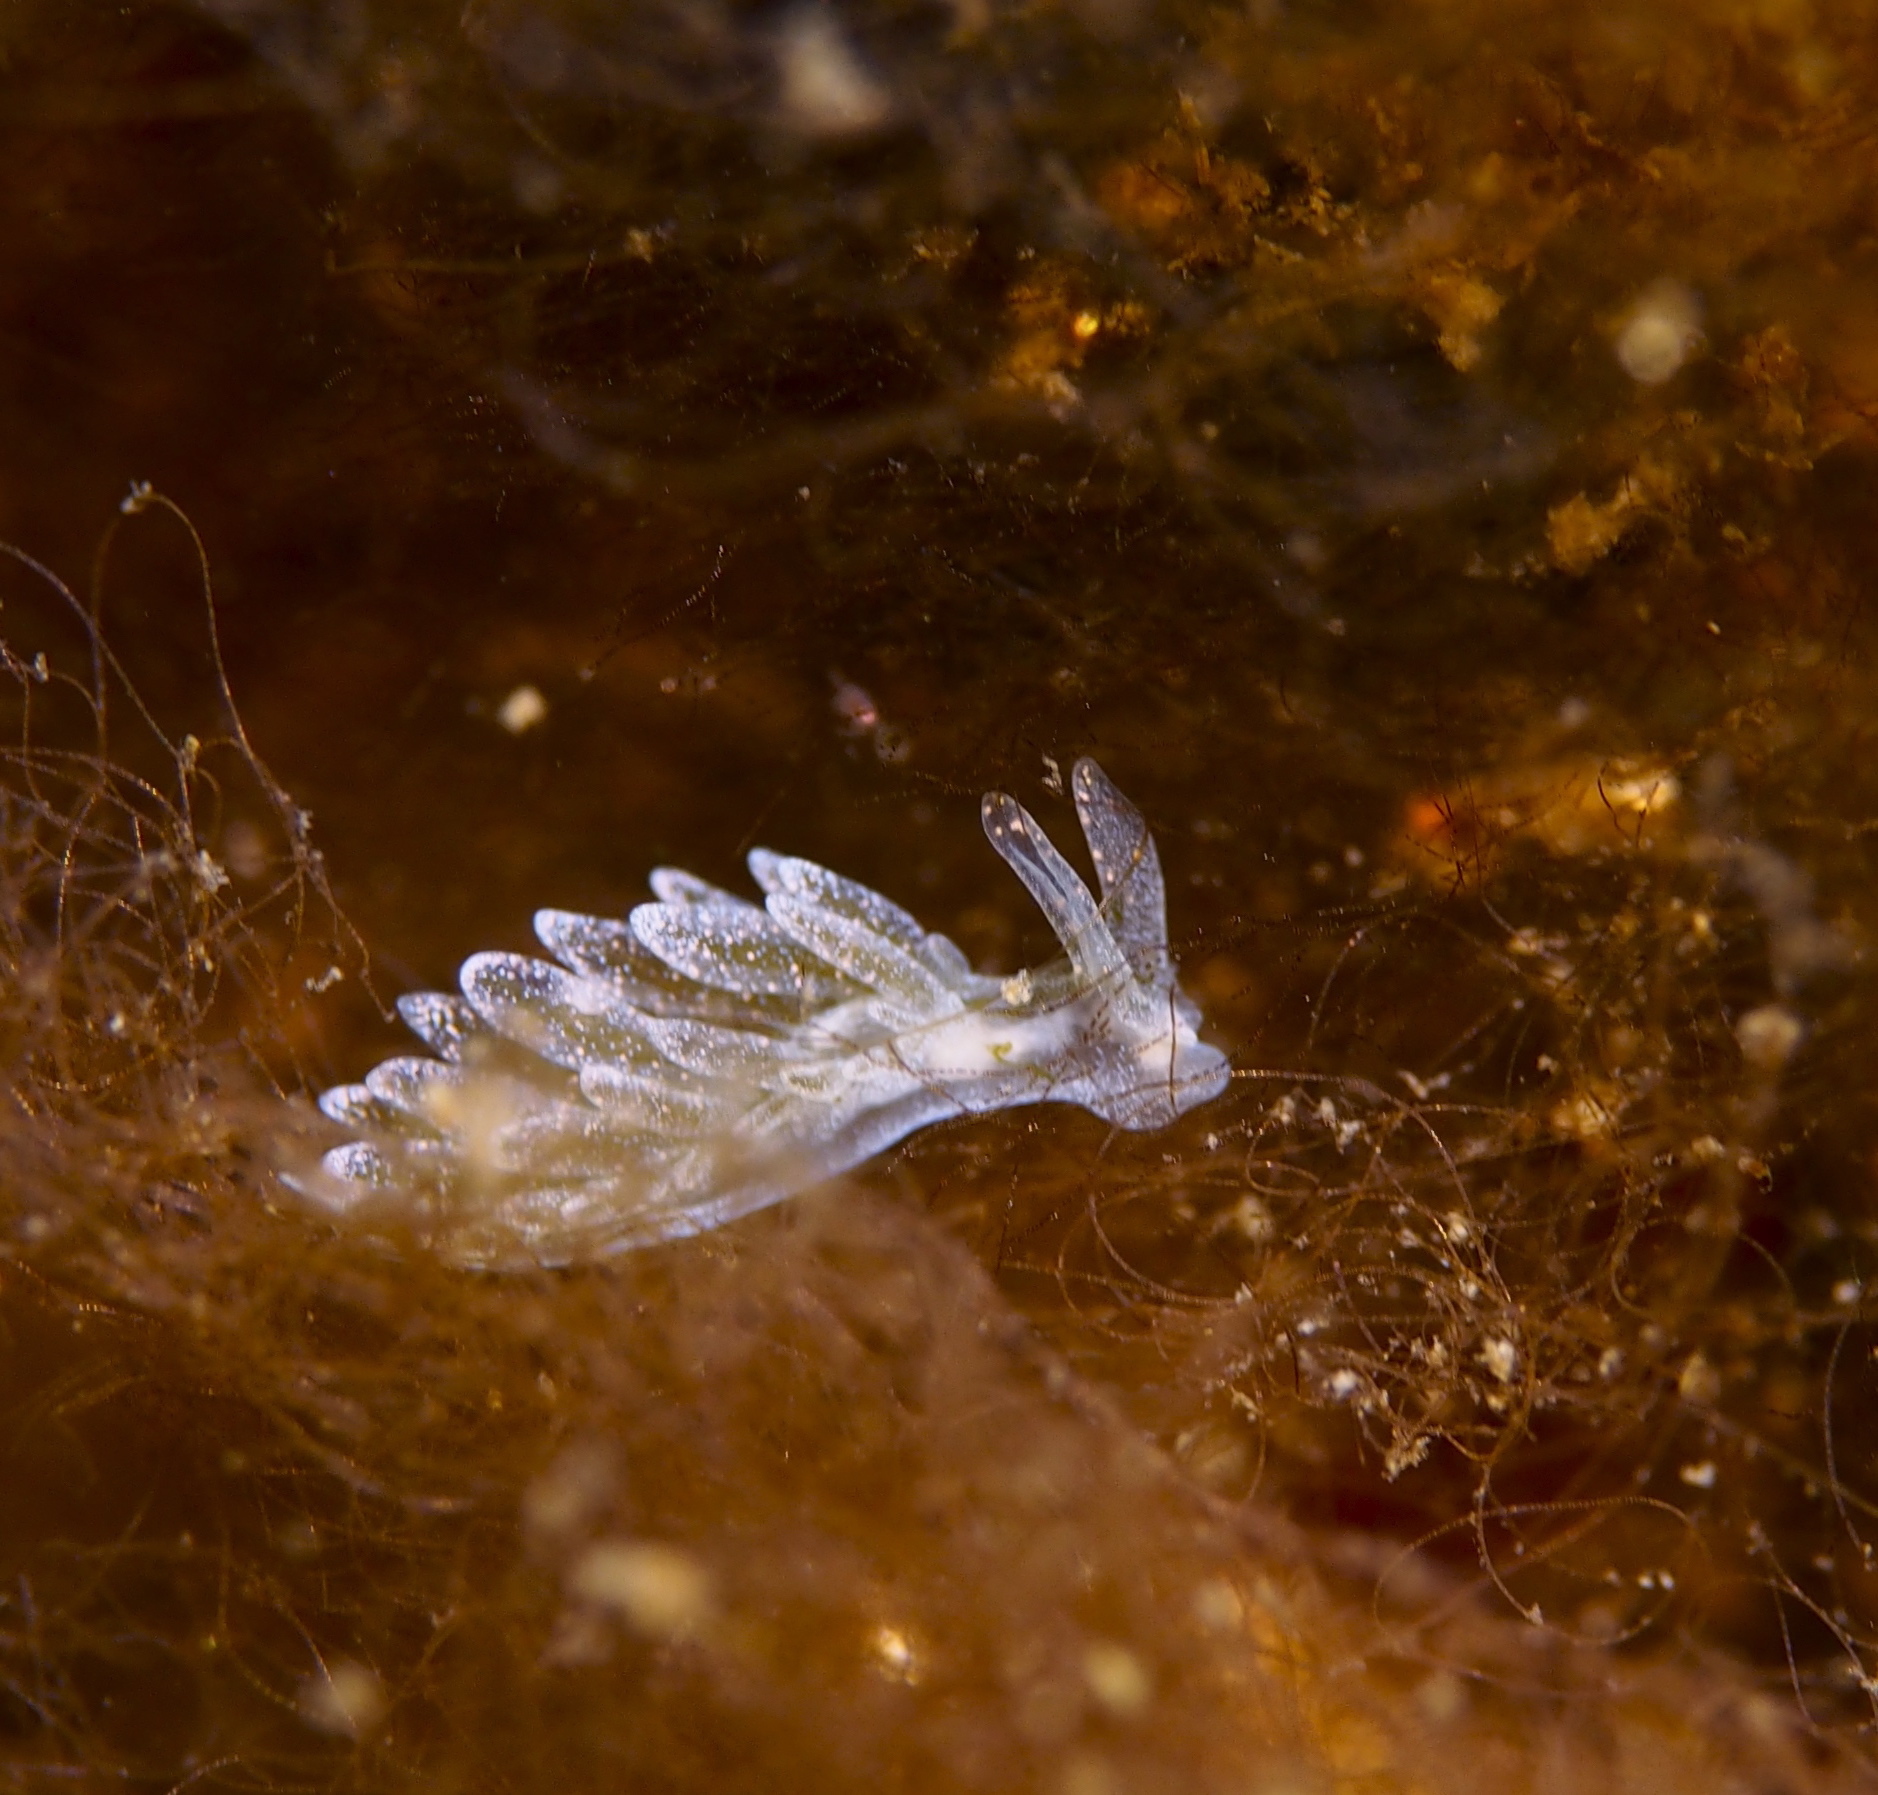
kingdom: Animalia
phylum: Mollusca
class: Gastropoda
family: Limapontiidae
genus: Placida
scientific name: Placida dendritica
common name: Dendritic nudibranch
